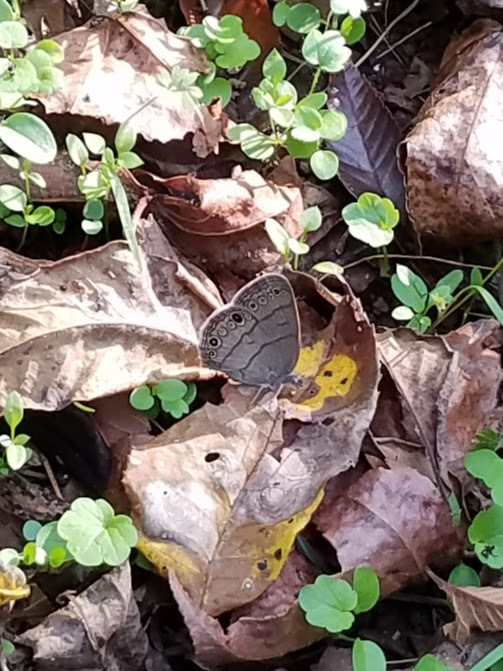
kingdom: Animalia
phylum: Arthropoda
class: Insecta
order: Lepidoptera
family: Nymphalidae
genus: Hermeuptychia
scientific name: Hermeuptychia hermes
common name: Hermes satyr
